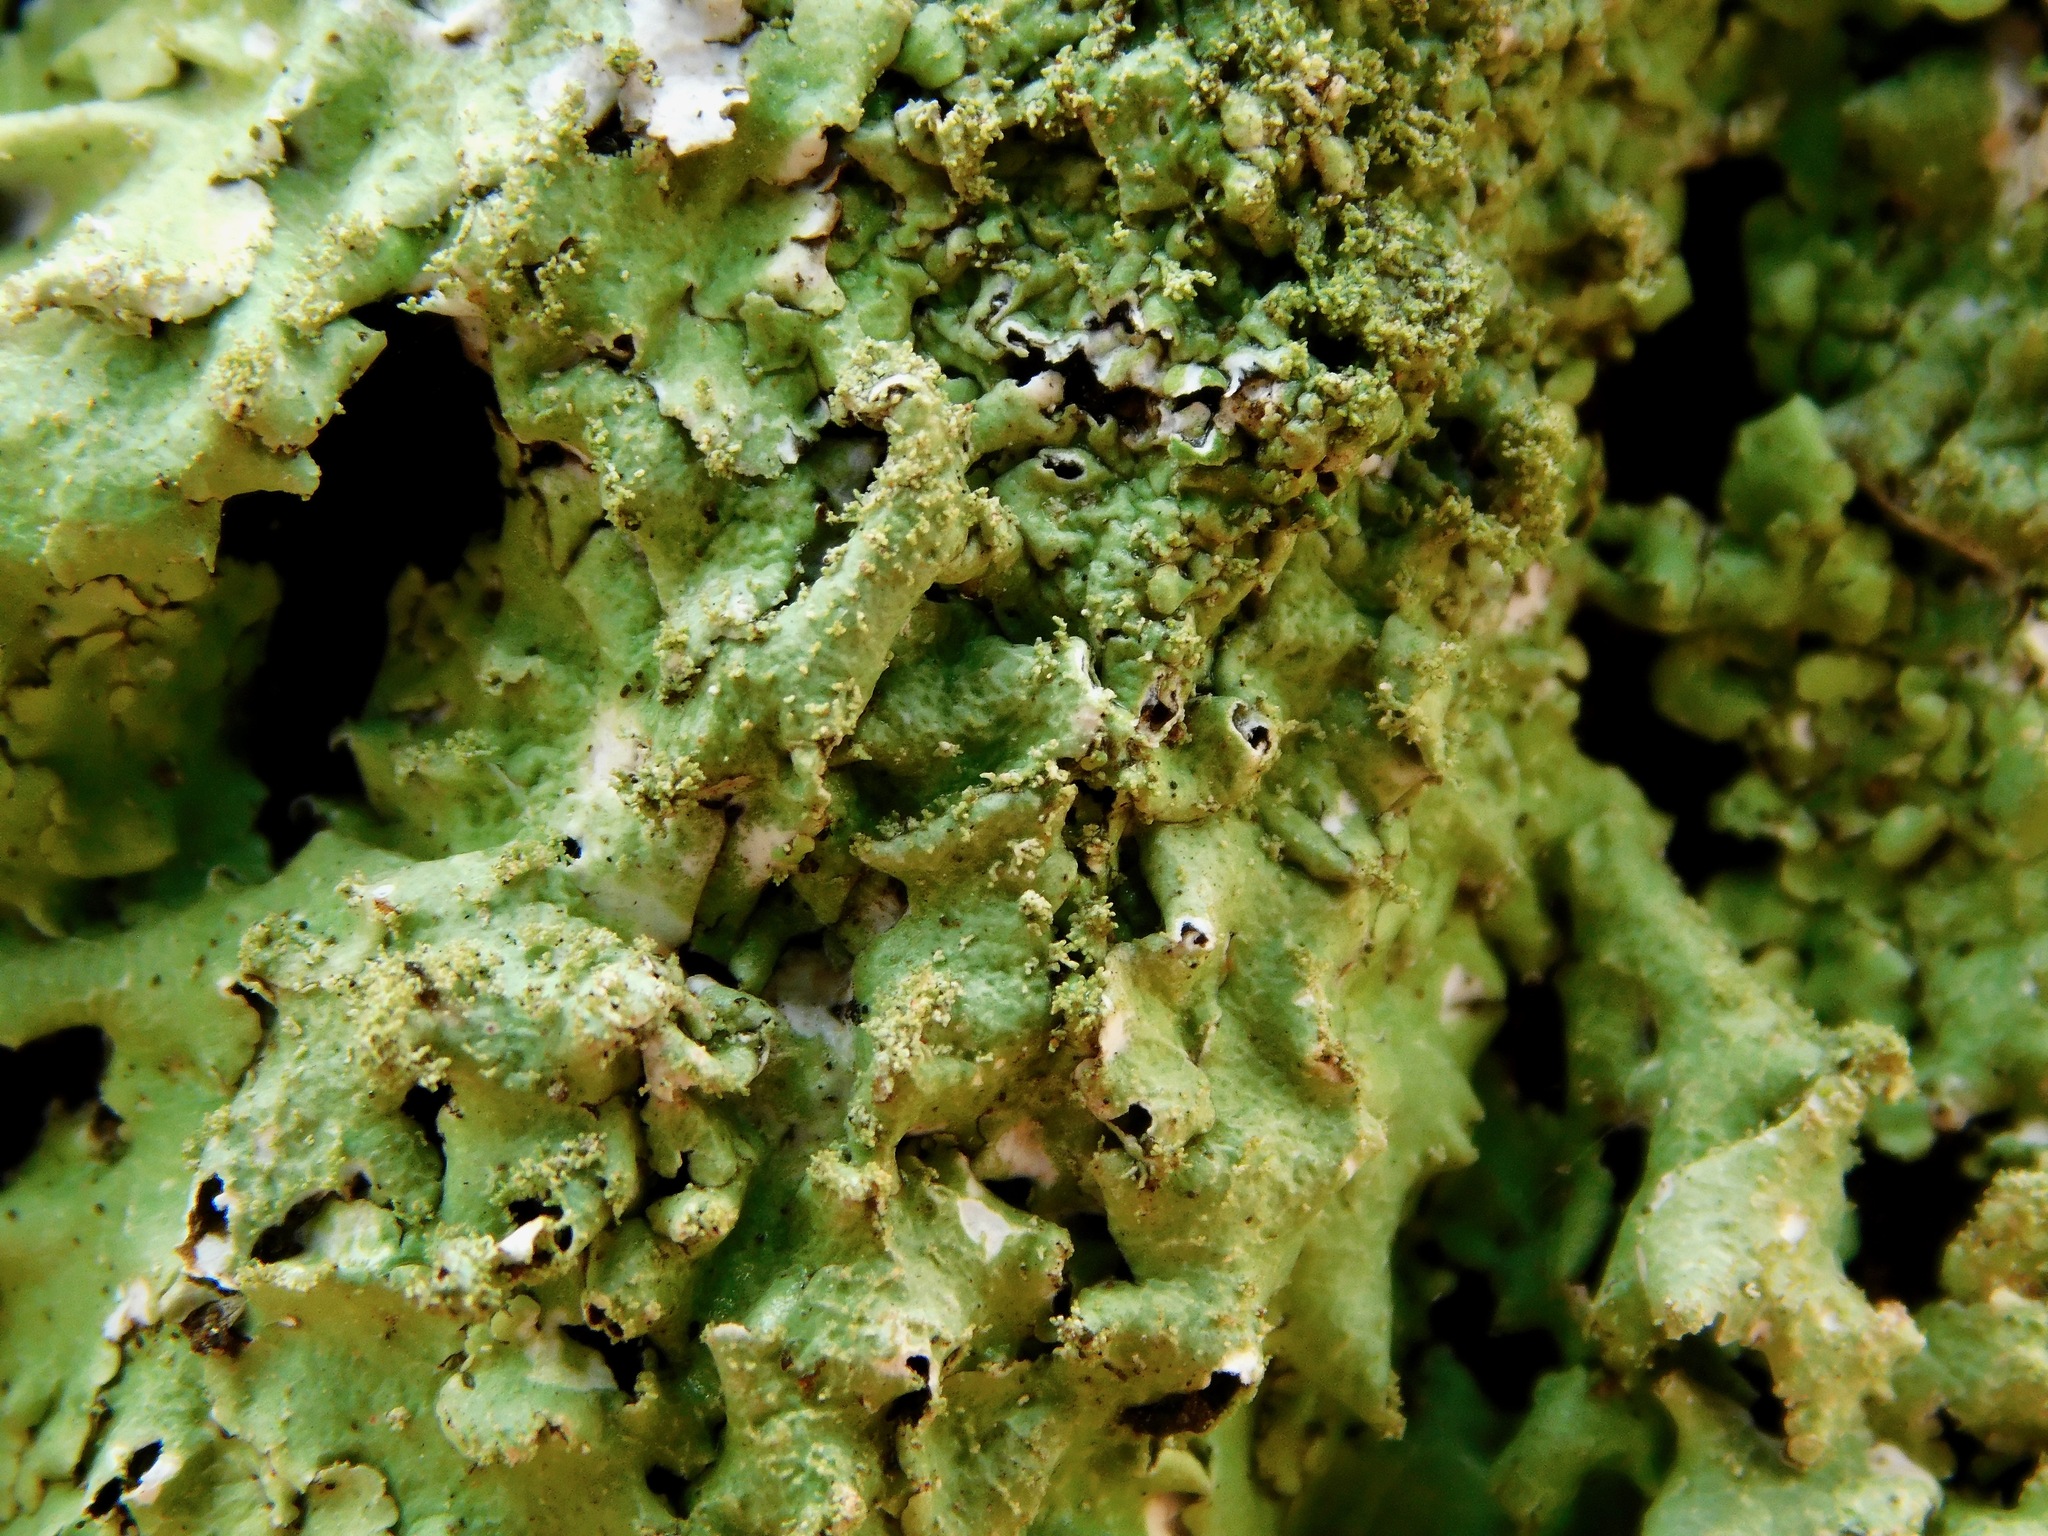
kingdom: Fungi
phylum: Ascomycota
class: Lecanoromycetes
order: Lecanorales
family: Parmeliaceae
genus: Canoparmelia
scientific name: Canoparmelia caroliniana
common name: Carolina shield lichen
